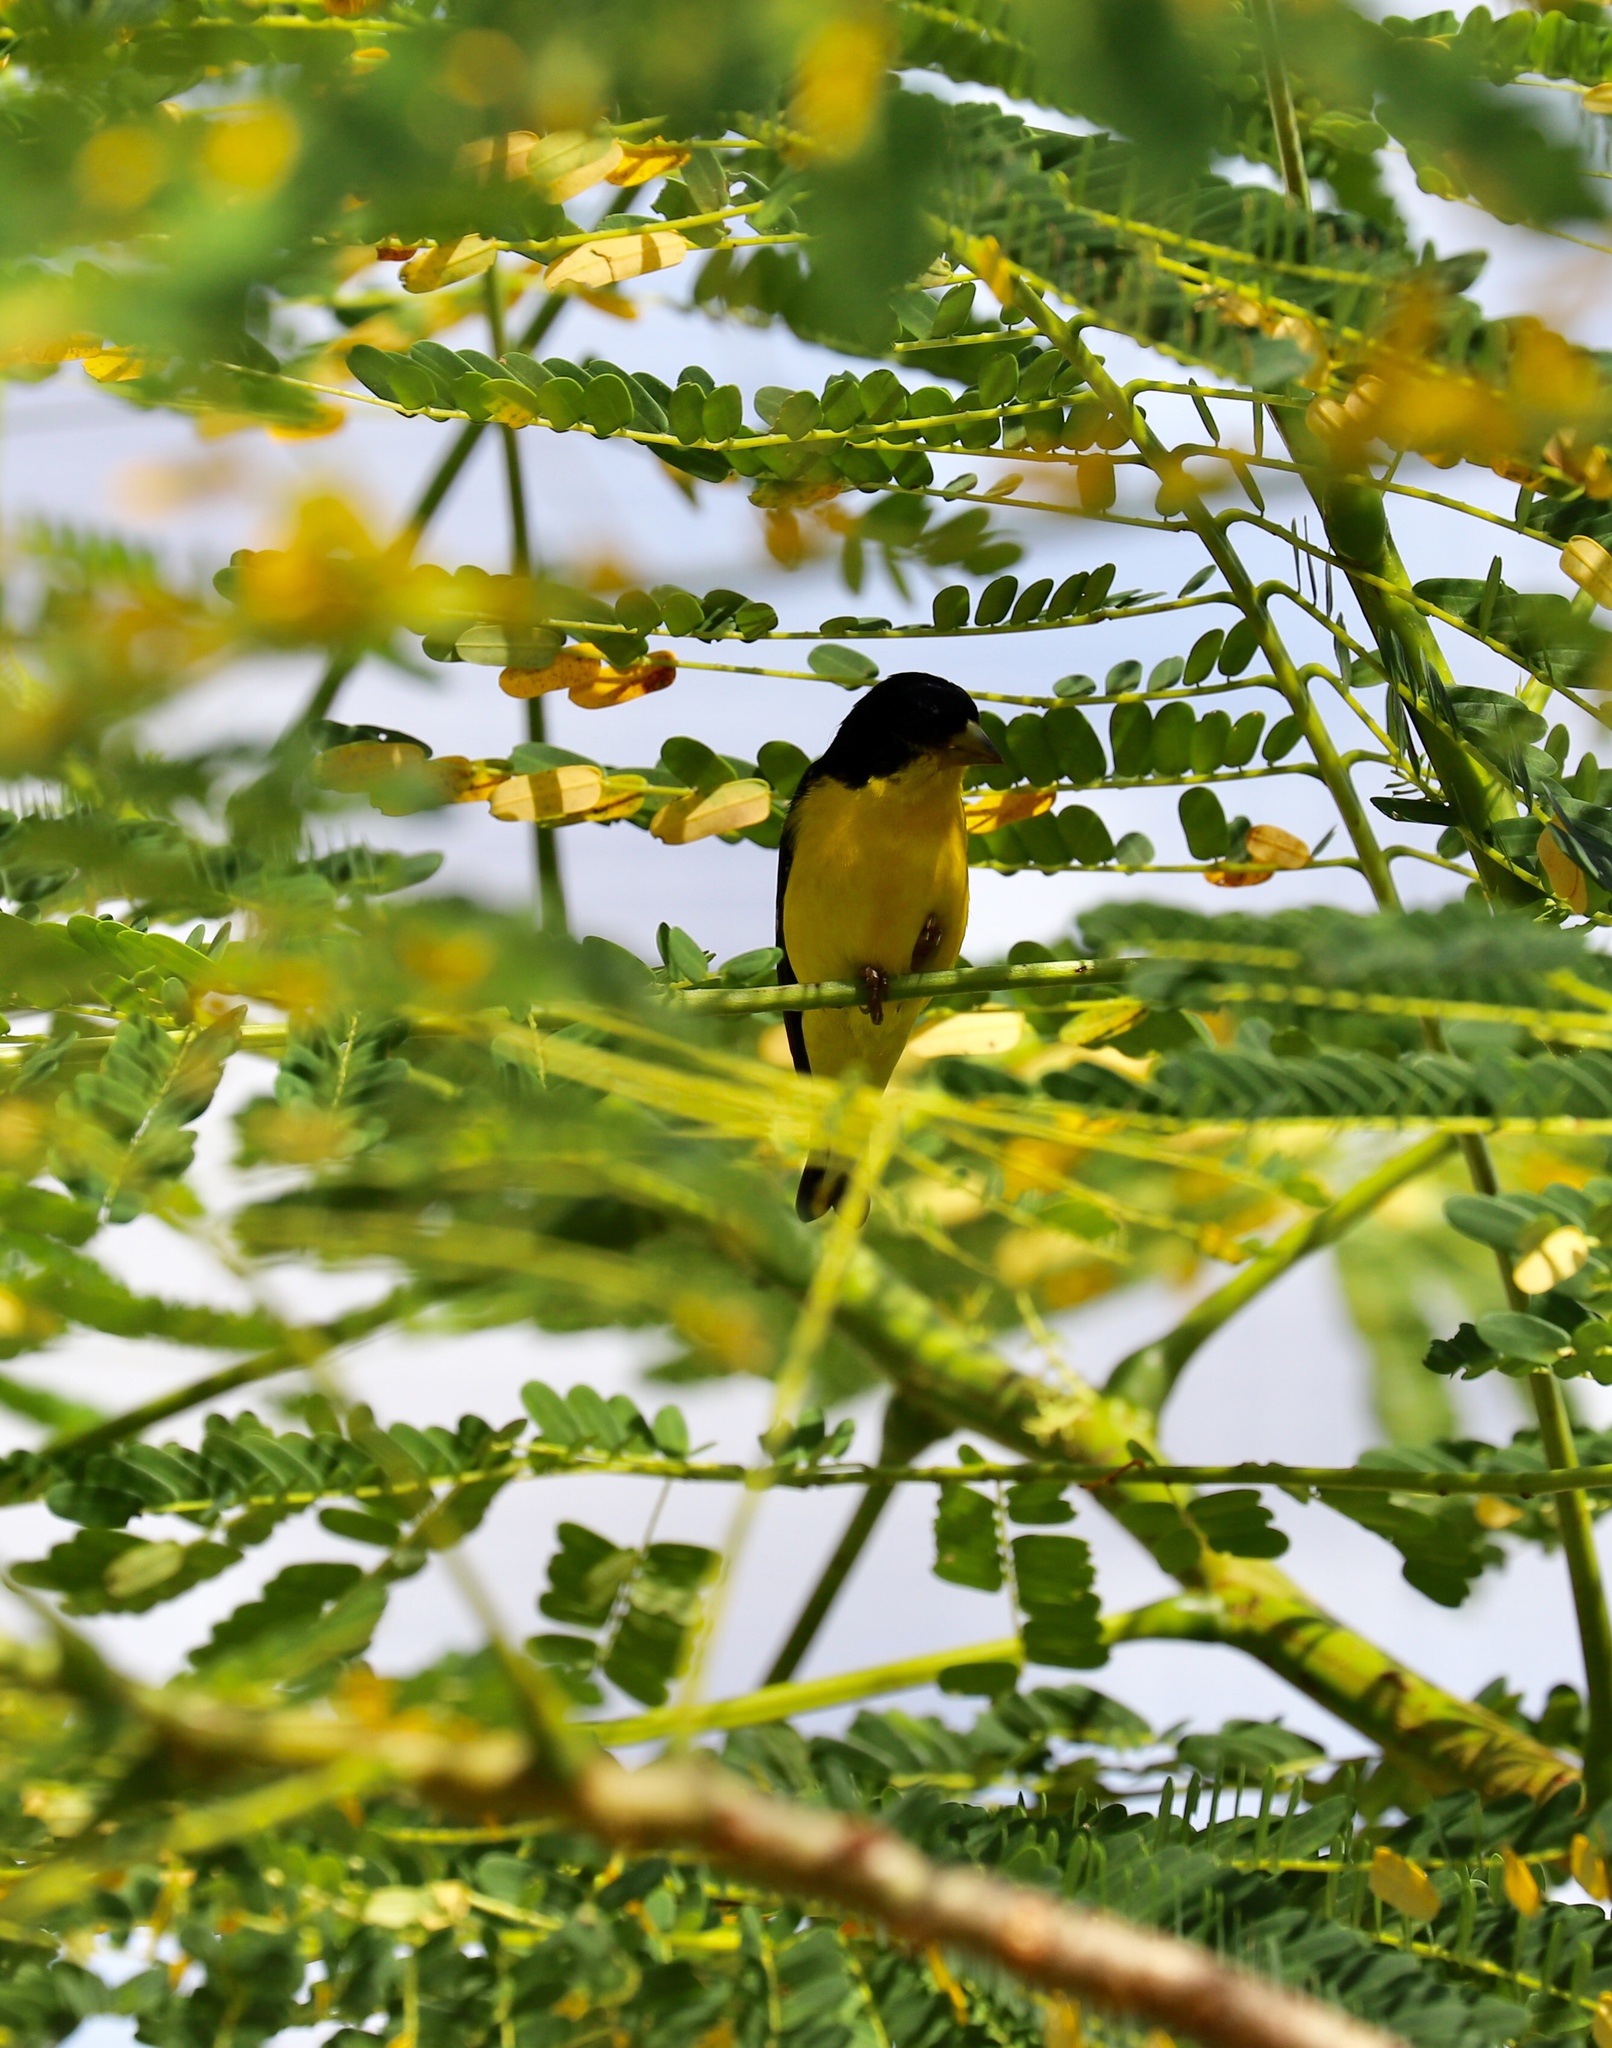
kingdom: Animalia
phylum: Chordata
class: Aves
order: Passeriformes
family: Fringillidae
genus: Spinus
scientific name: Spinus psaltria
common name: Lesser goldfinch
